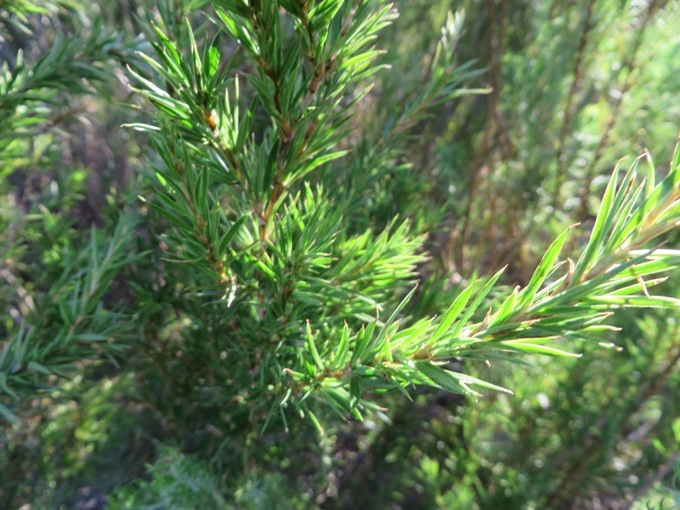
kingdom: Plantae
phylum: Tracheophyta
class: Magnoliopsida
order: Rosales
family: Rosaceae
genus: Cliffortia
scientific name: Cliffortia strobilifera
